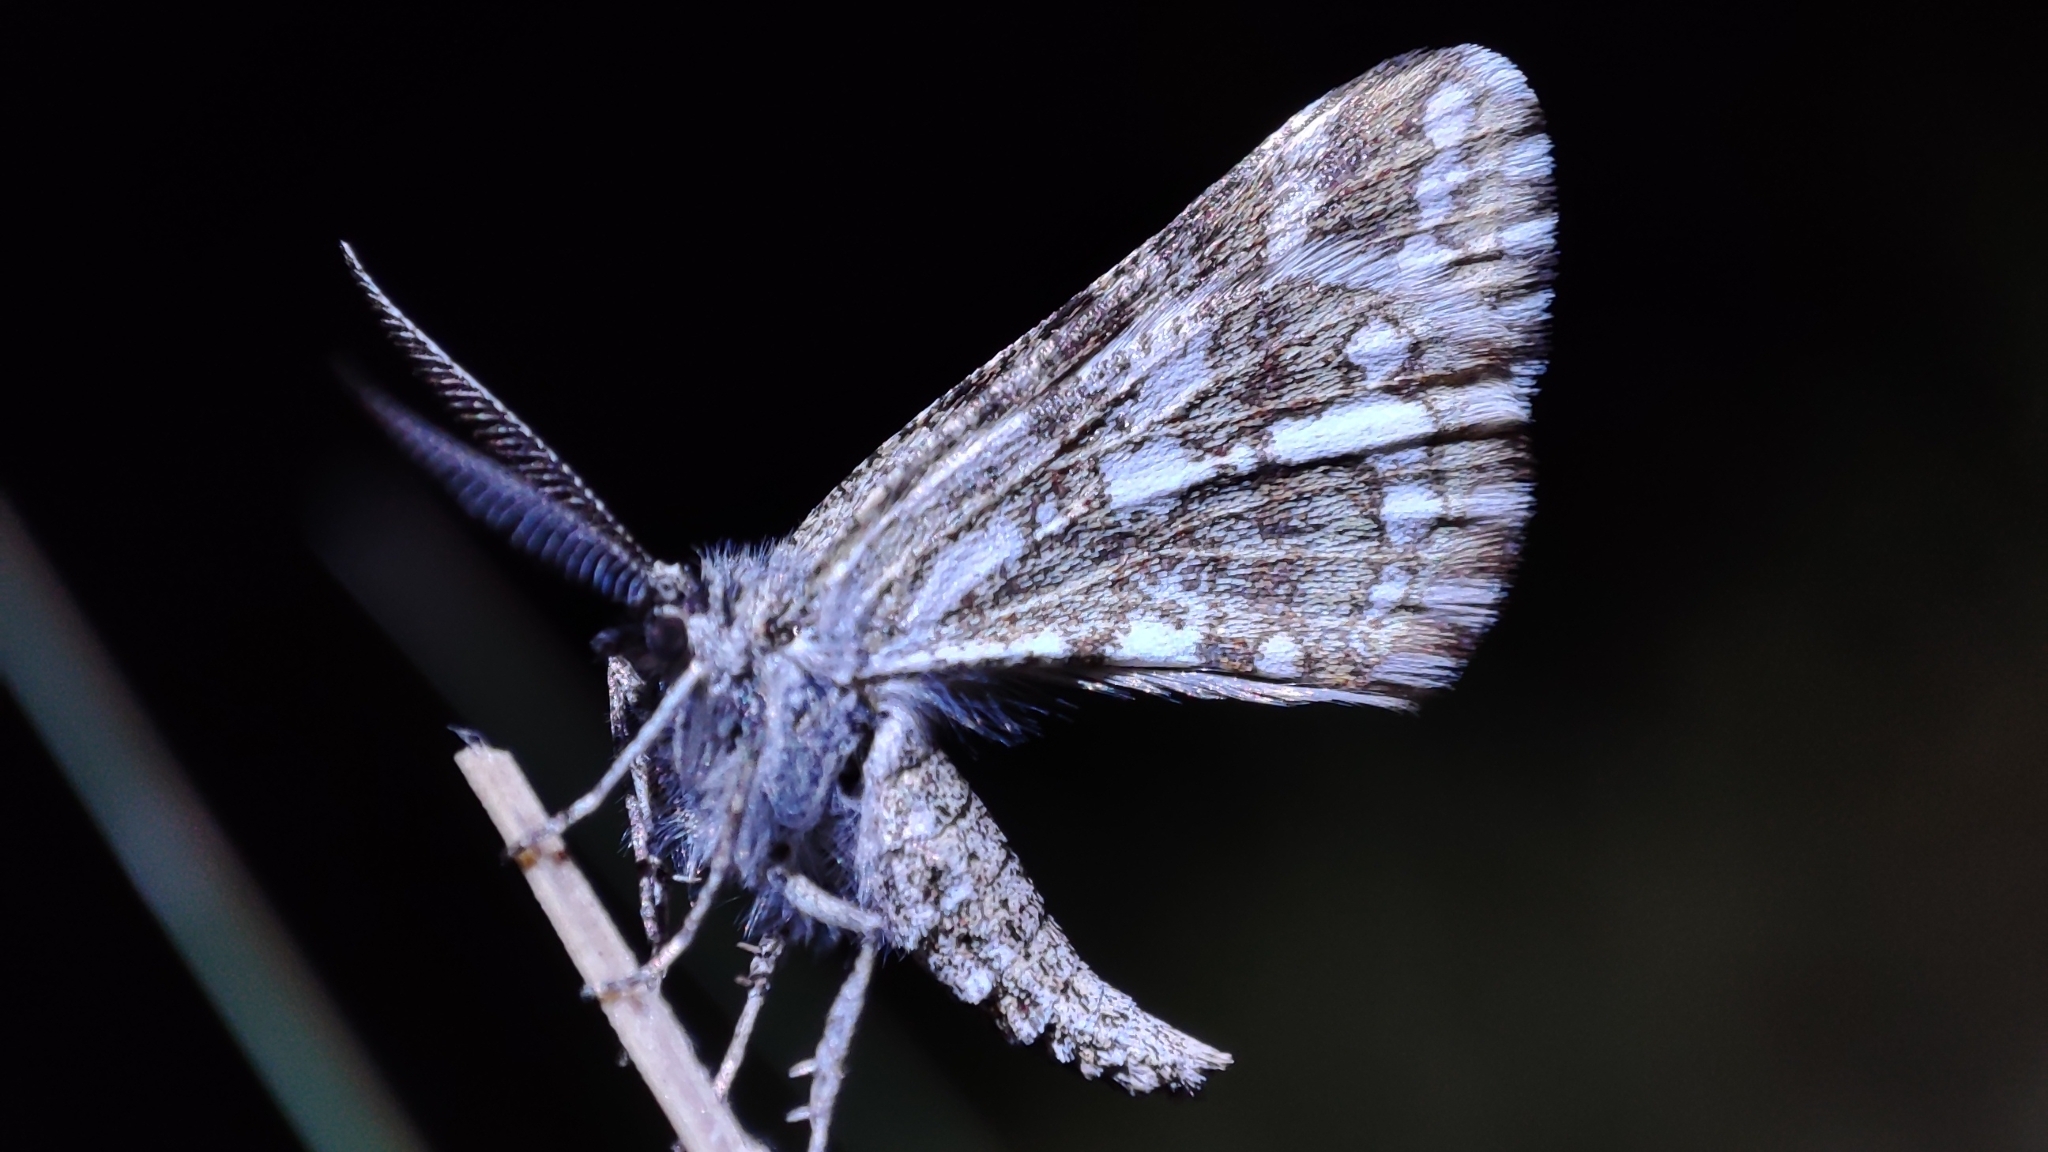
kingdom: Animalia
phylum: Arthropoda
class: Insecta
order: Lepidoptera
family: Geometridae
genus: Narraga
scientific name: Narraga fasciolaria
